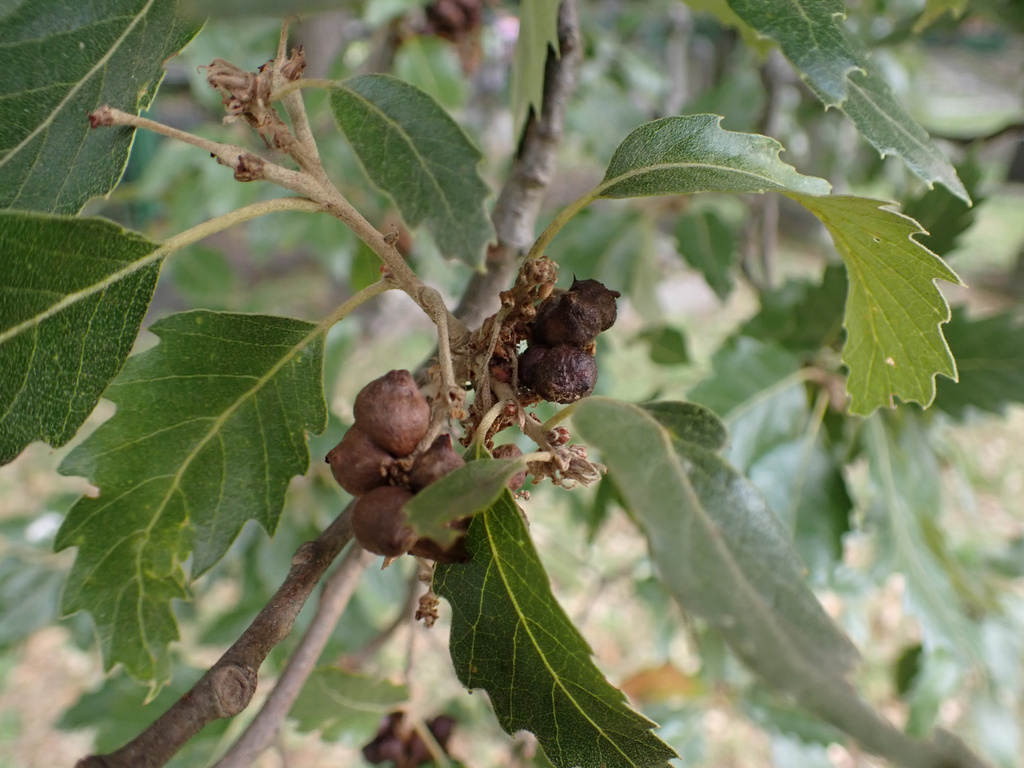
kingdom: Animalia
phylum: Arthropoda
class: Insecta
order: Hymenoptera
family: Cynipidae
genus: Andricus
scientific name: Andricus grossulariae
